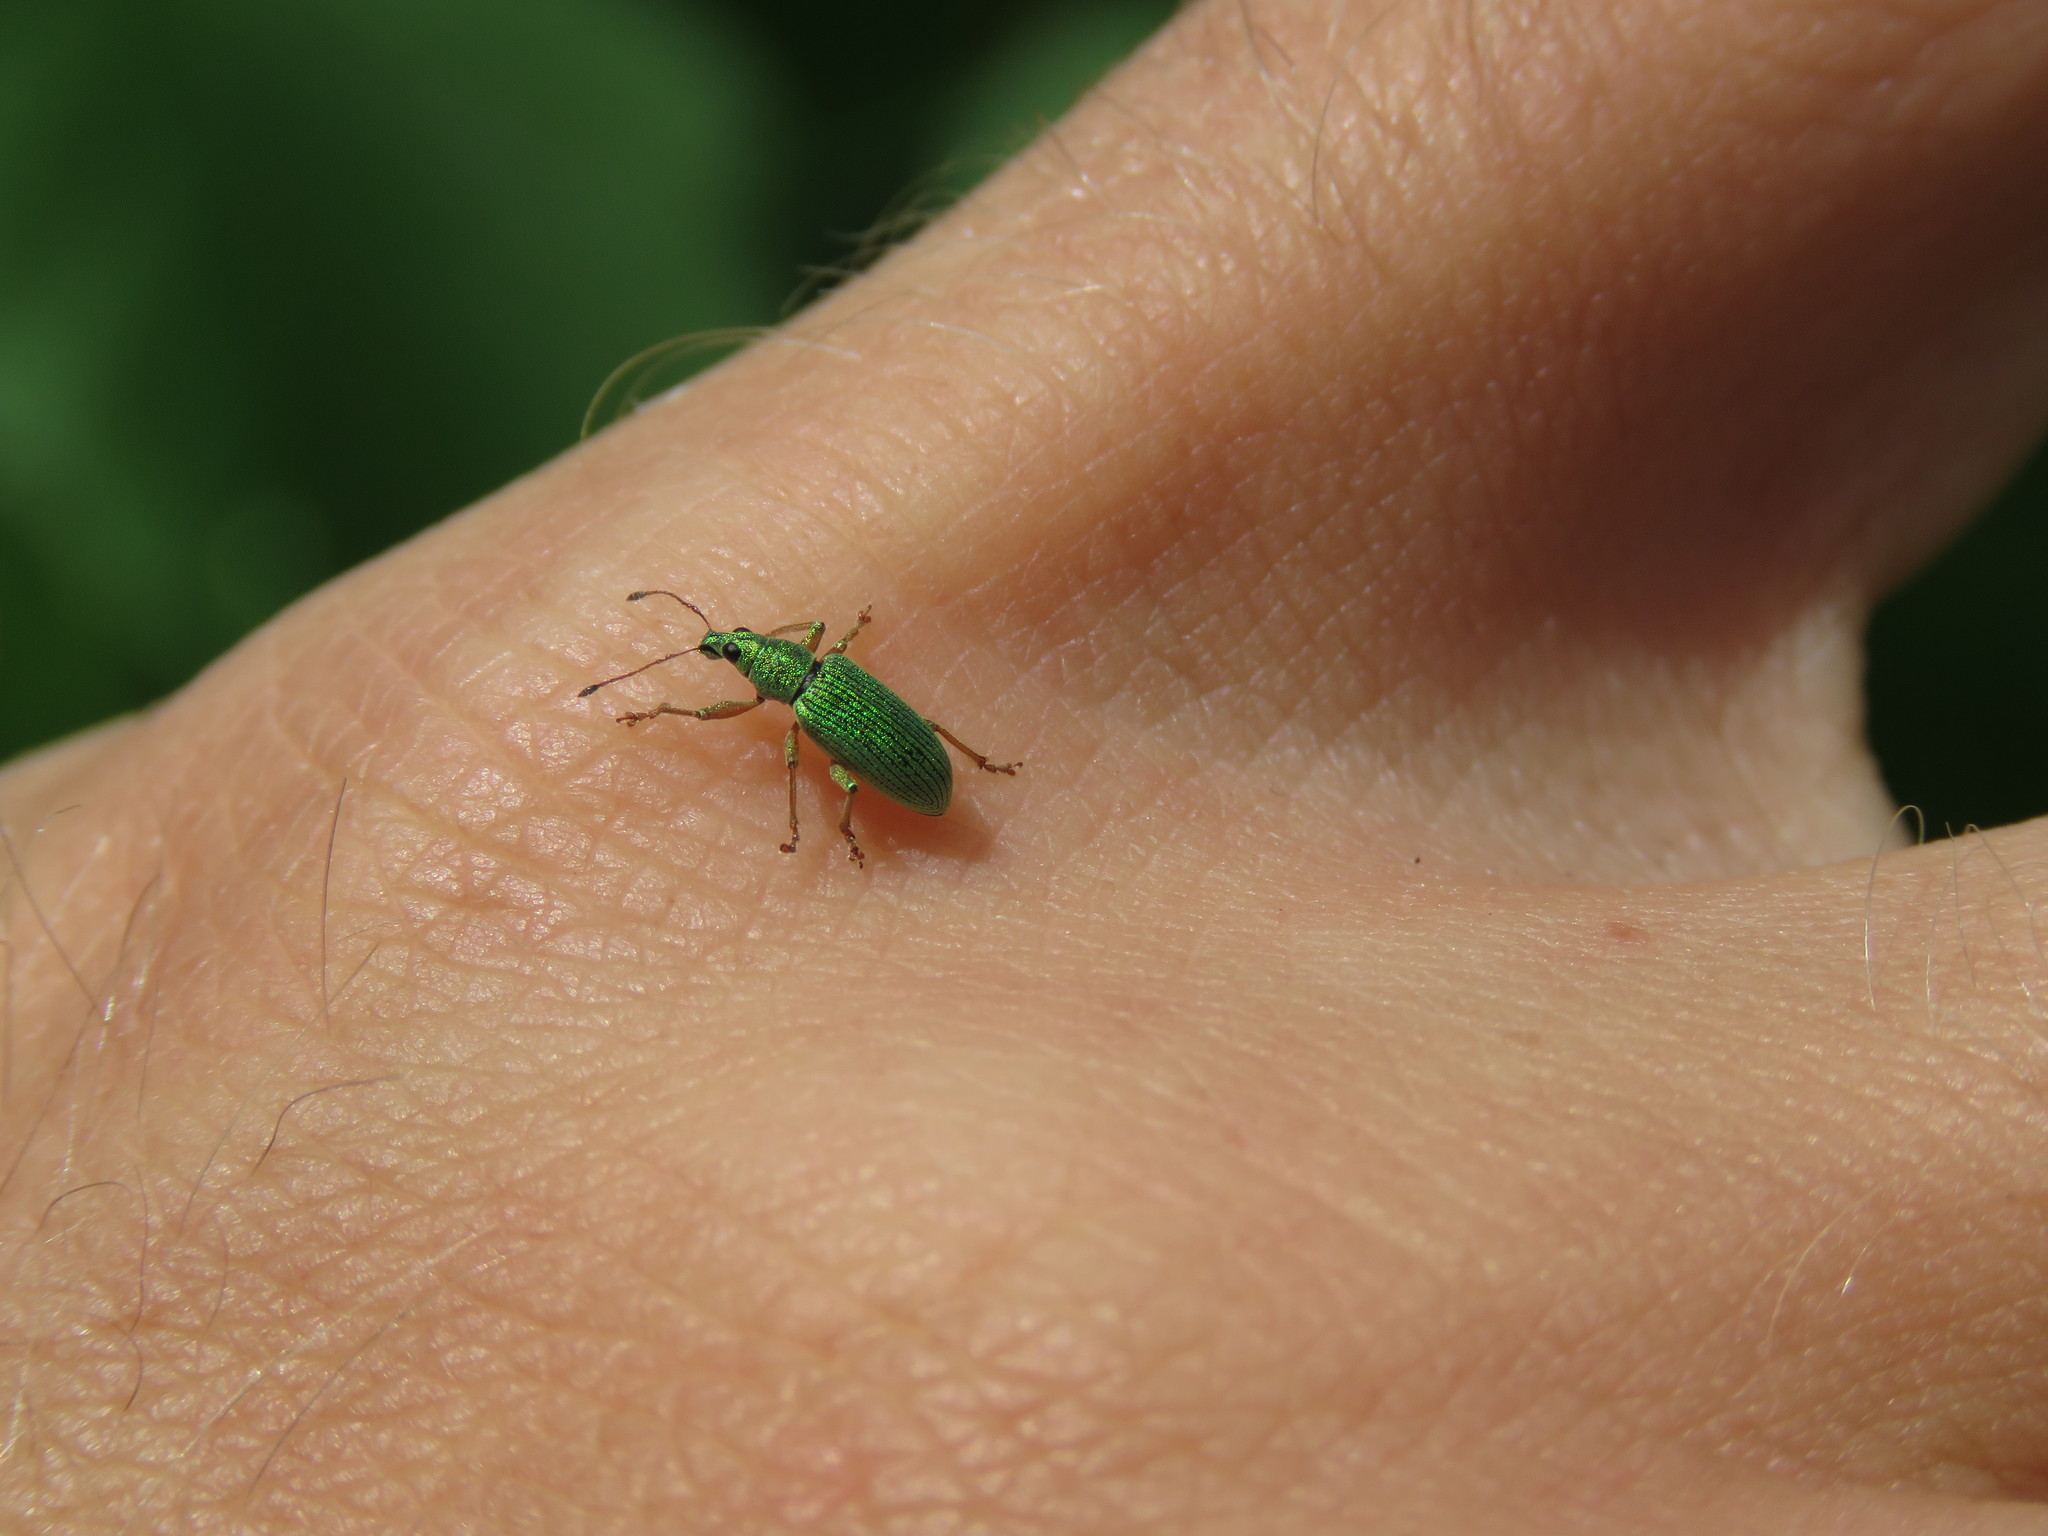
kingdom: Animalia
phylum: Arthropoda
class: Insecta
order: Coleoptera
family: Curculionidae
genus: Polydrusus
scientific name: Polydrusus formosus
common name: Weevil
